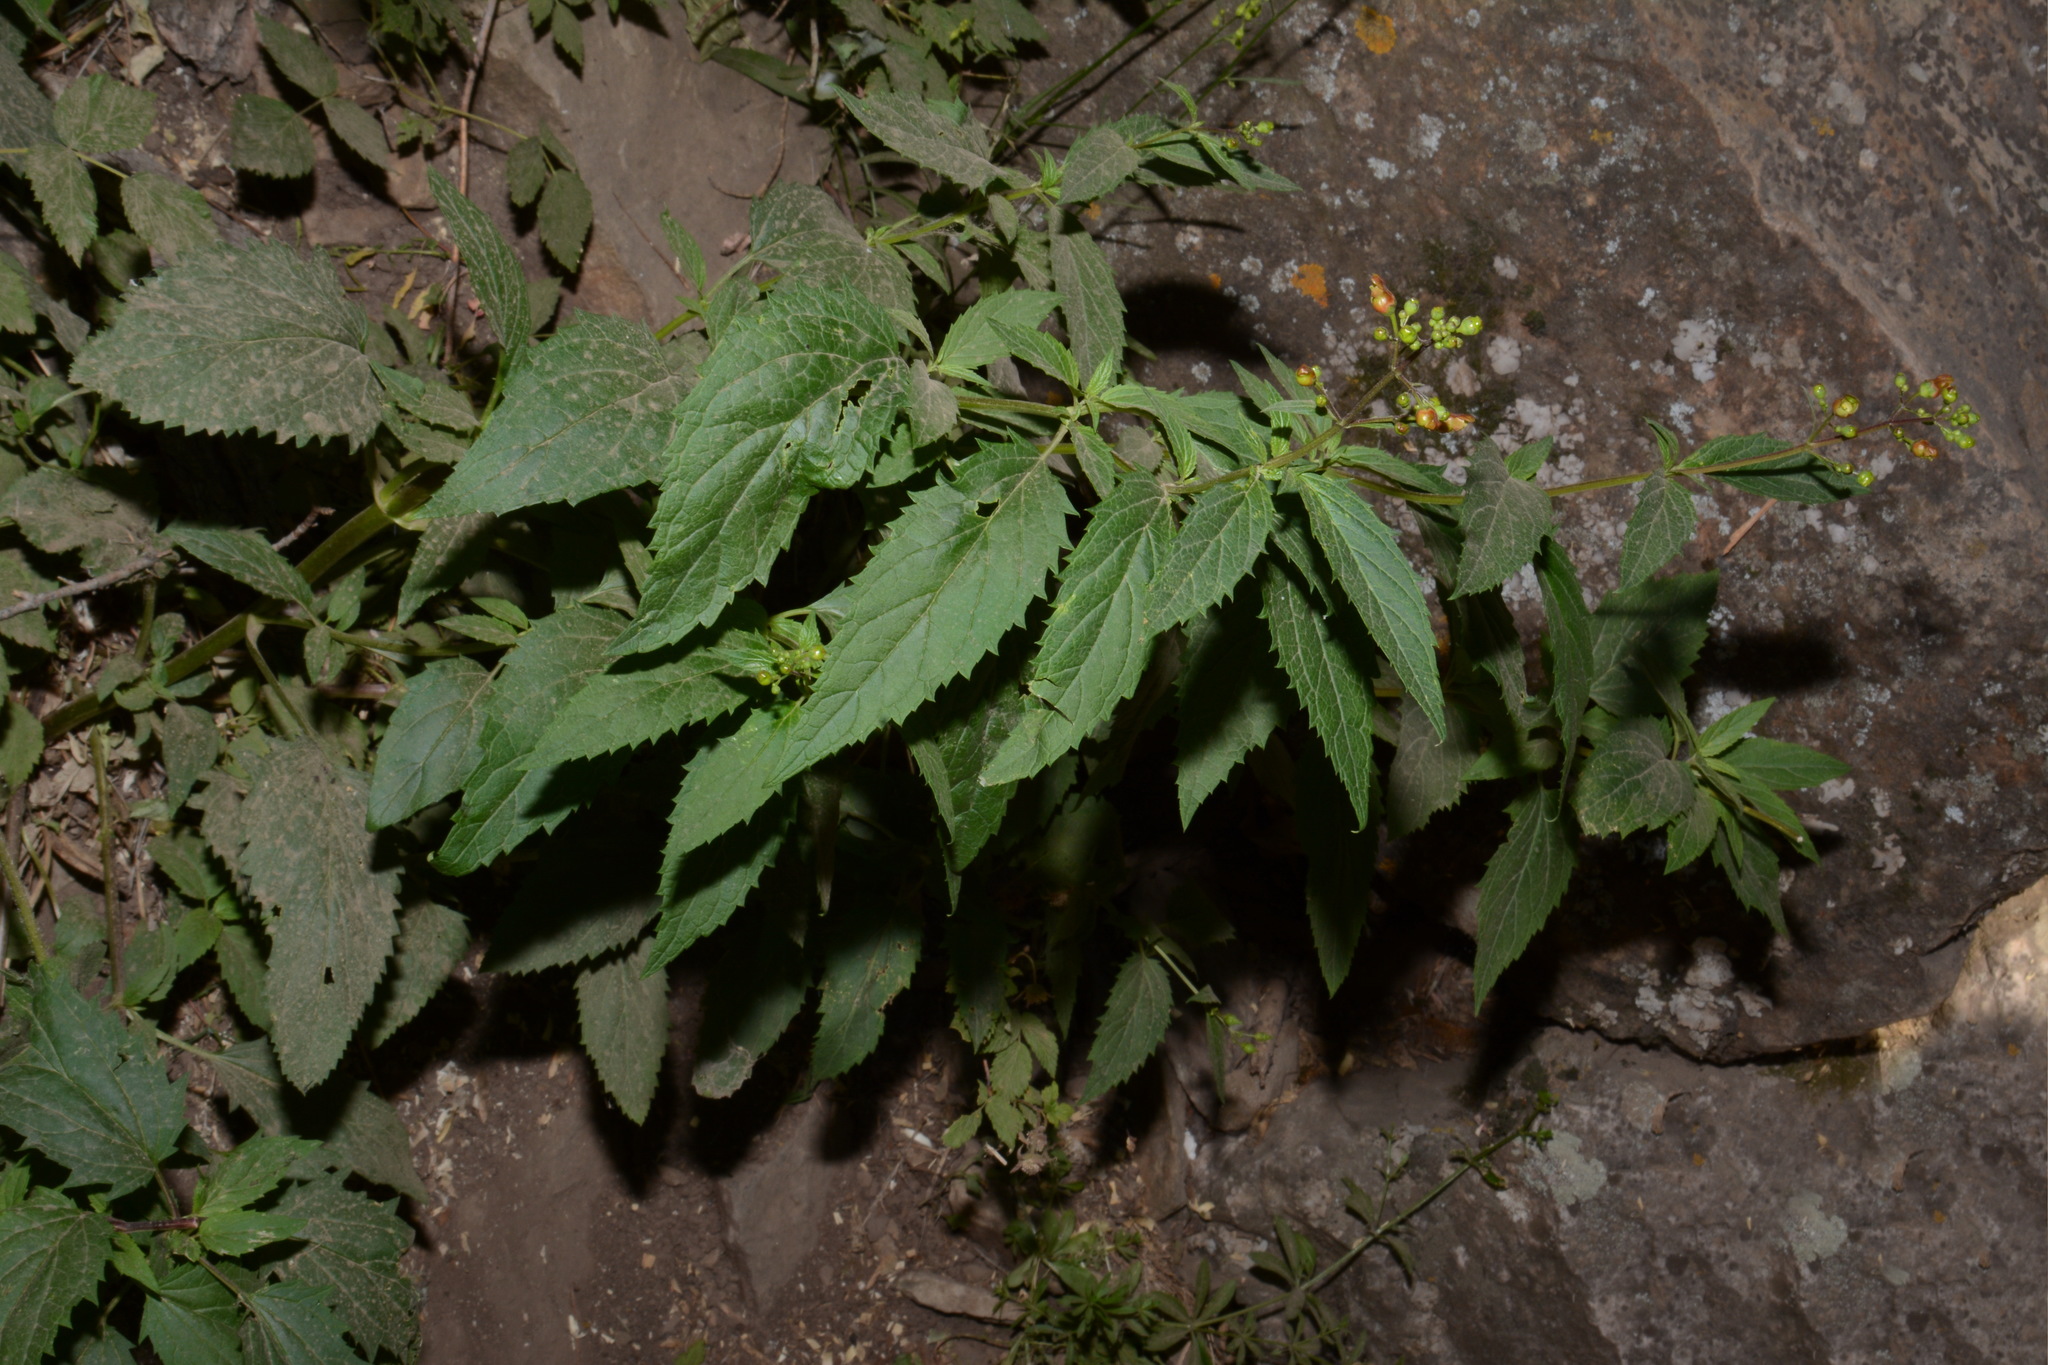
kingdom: Plantae
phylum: Tracheophyta
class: Magnoliopsida
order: Lamiales
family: Scrophulariaceae
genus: Scrophularia
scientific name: Scrophularia lanceolata
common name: American figwort
